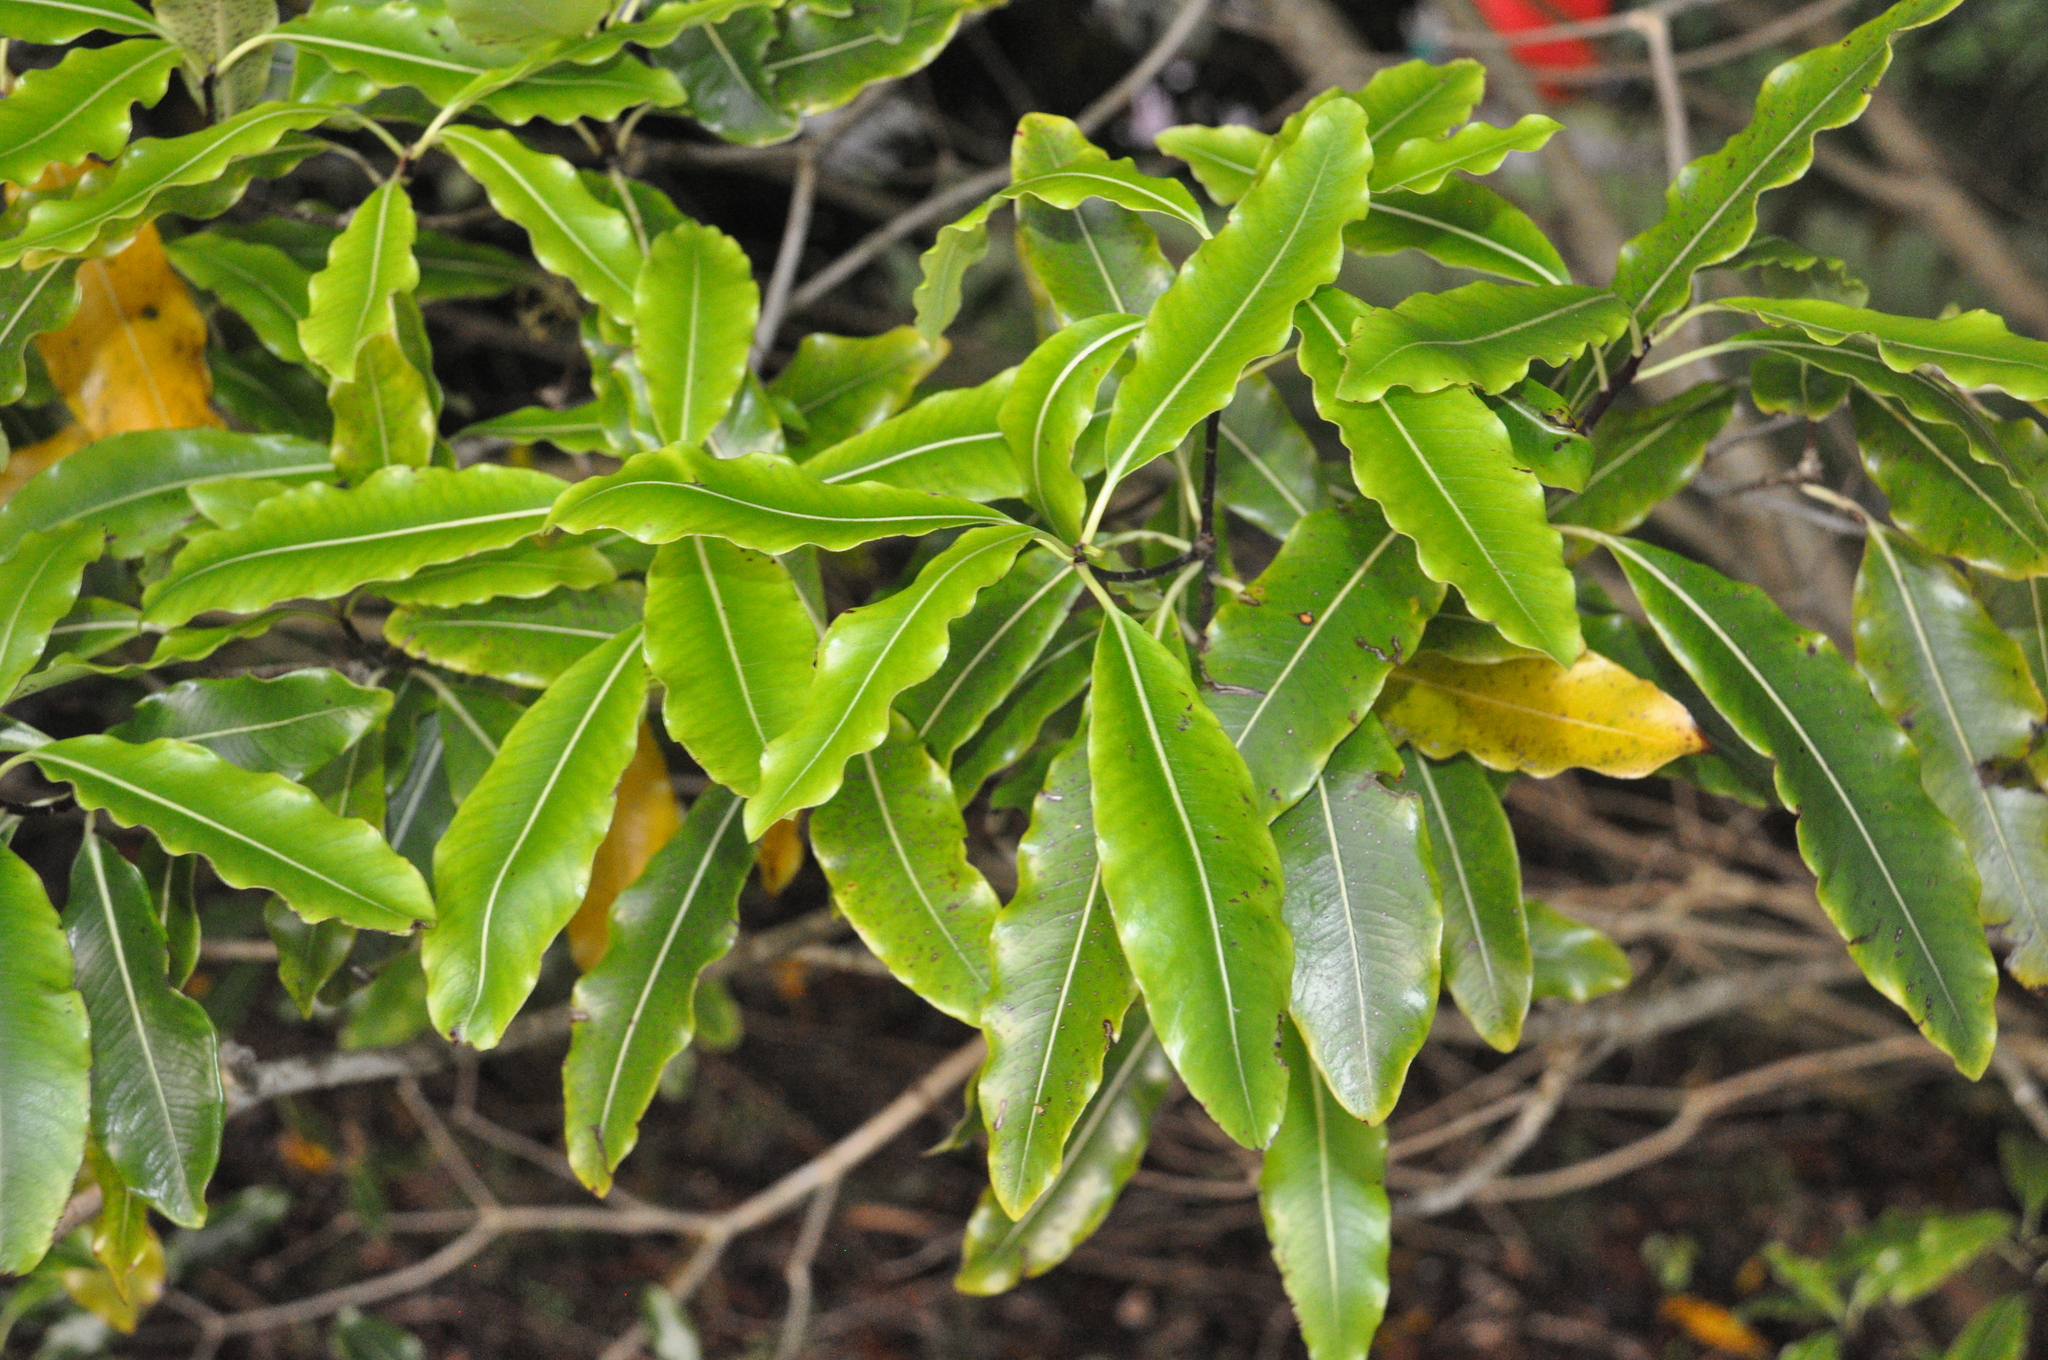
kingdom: Plantae
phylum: Tracheophyta
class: Magnoliopsida
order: Apiales
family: Pittosporaceae
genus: Pittosporum
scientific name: Pittosporum eugenioides
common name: Lemonwood
